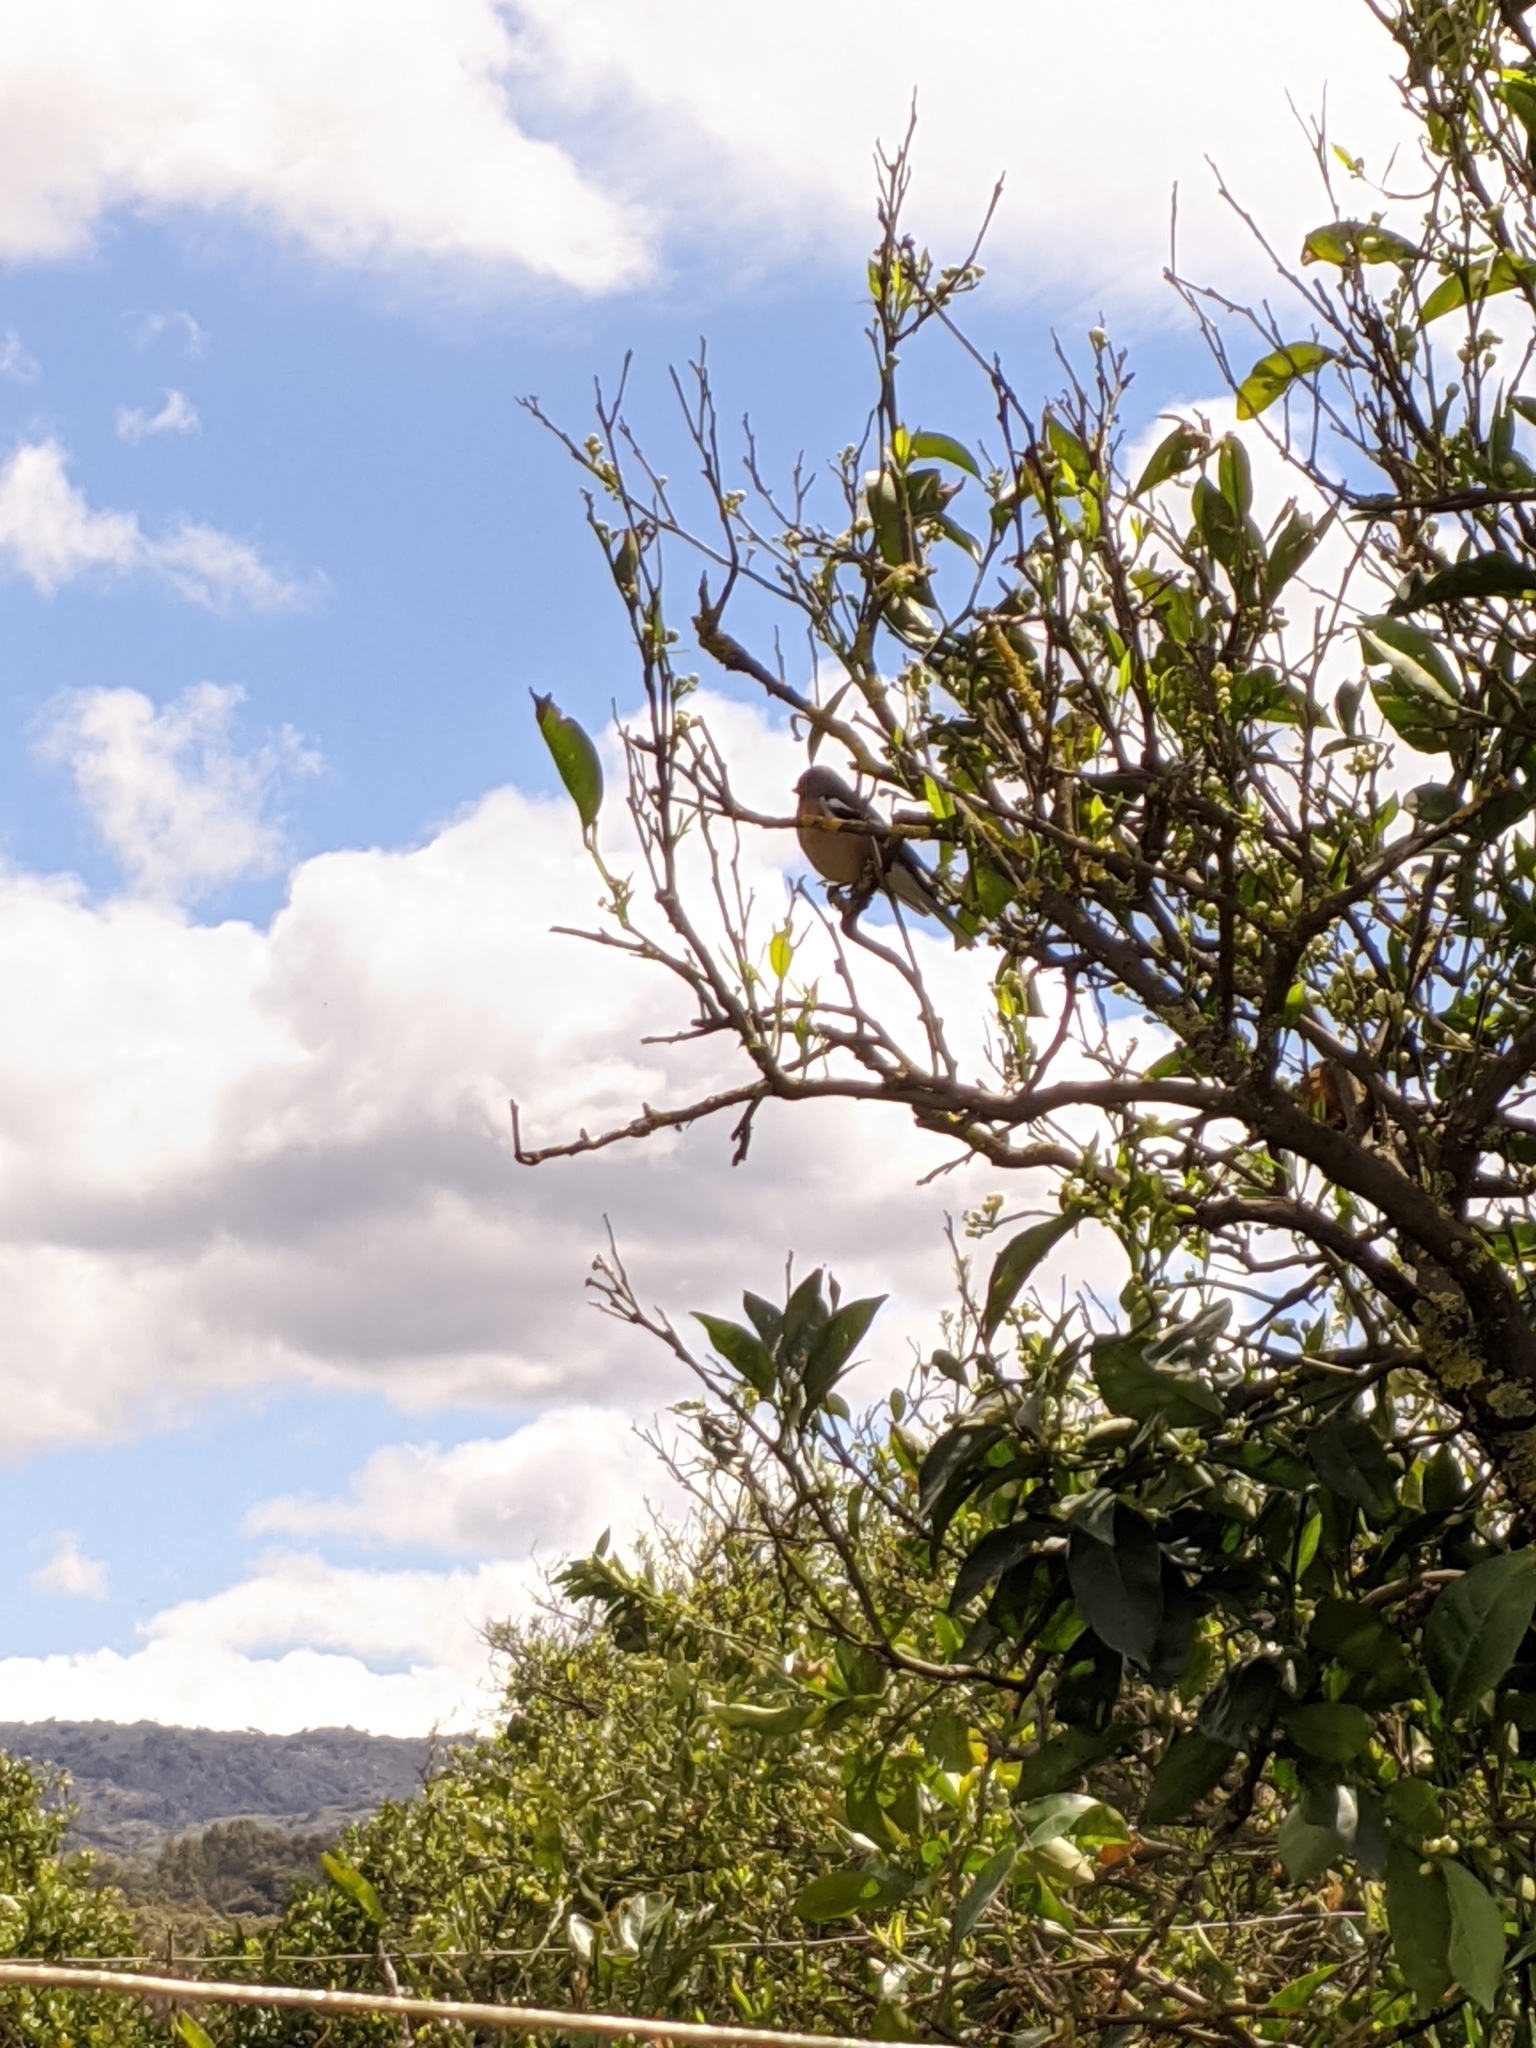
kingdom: Animalia
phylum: Chordata
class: Aves
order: Passeriformes
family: Fringillidae
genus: Fringilla
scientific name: Fringilla coelebs
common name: Common chaffinch
